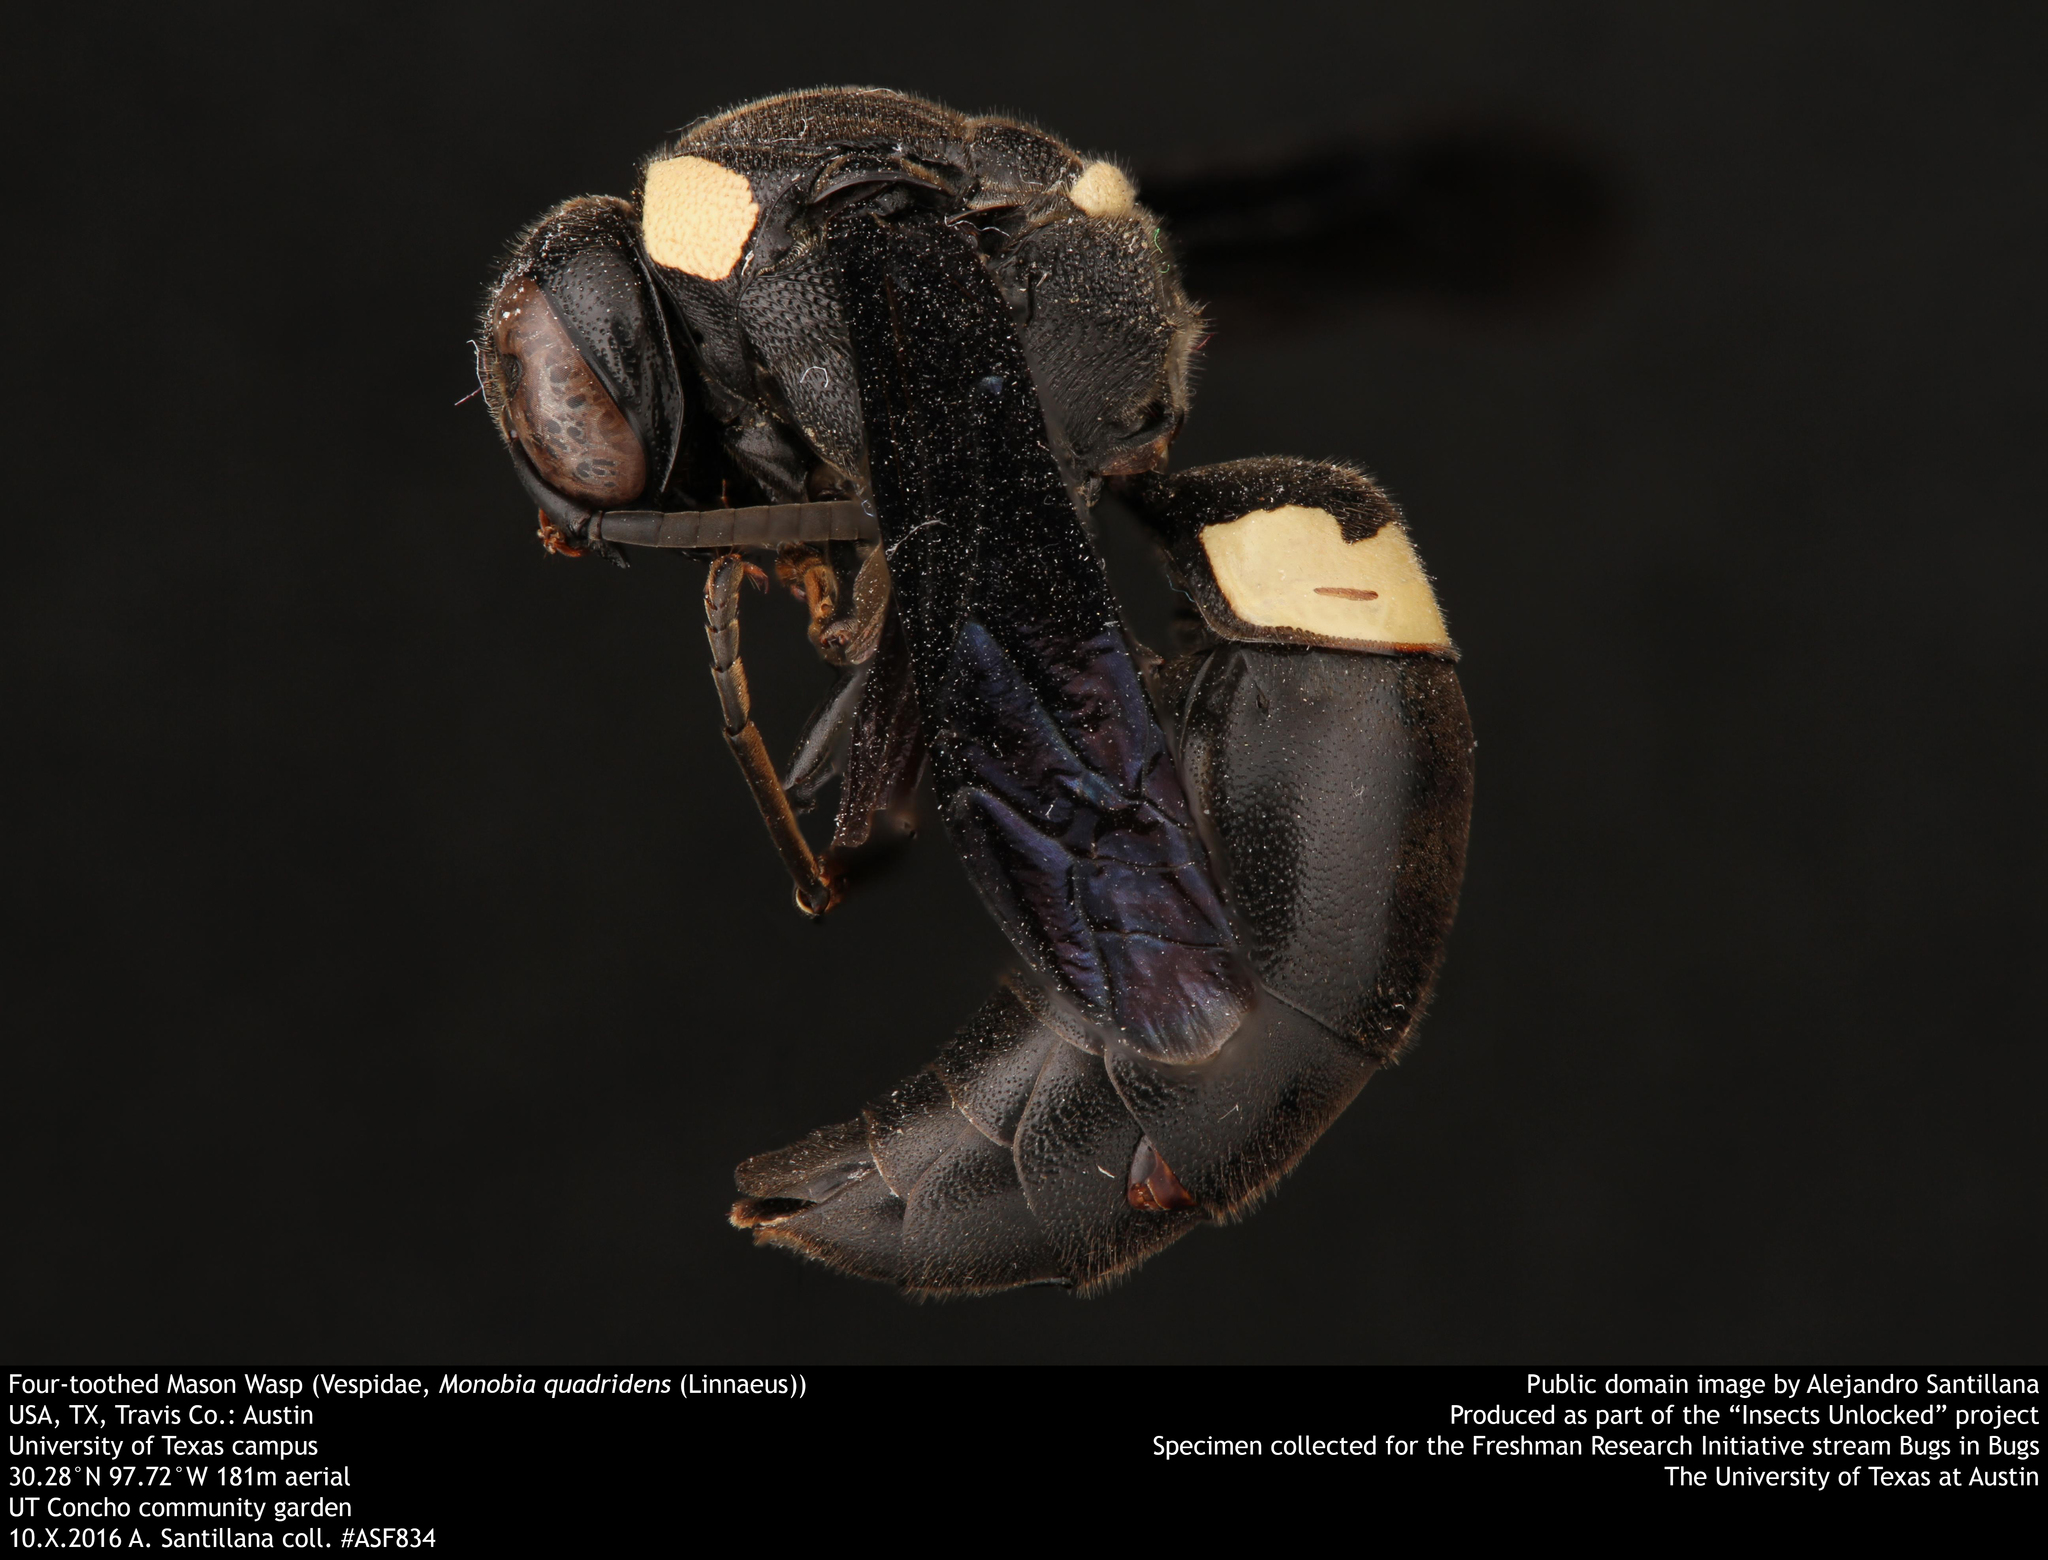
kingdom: Animalia
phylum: Arthropoda
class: Insecta
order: Hymenoptera
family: Eumenidae
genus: Monobia
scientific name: Monobia quadridens
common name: Four-toothed mason wasp
